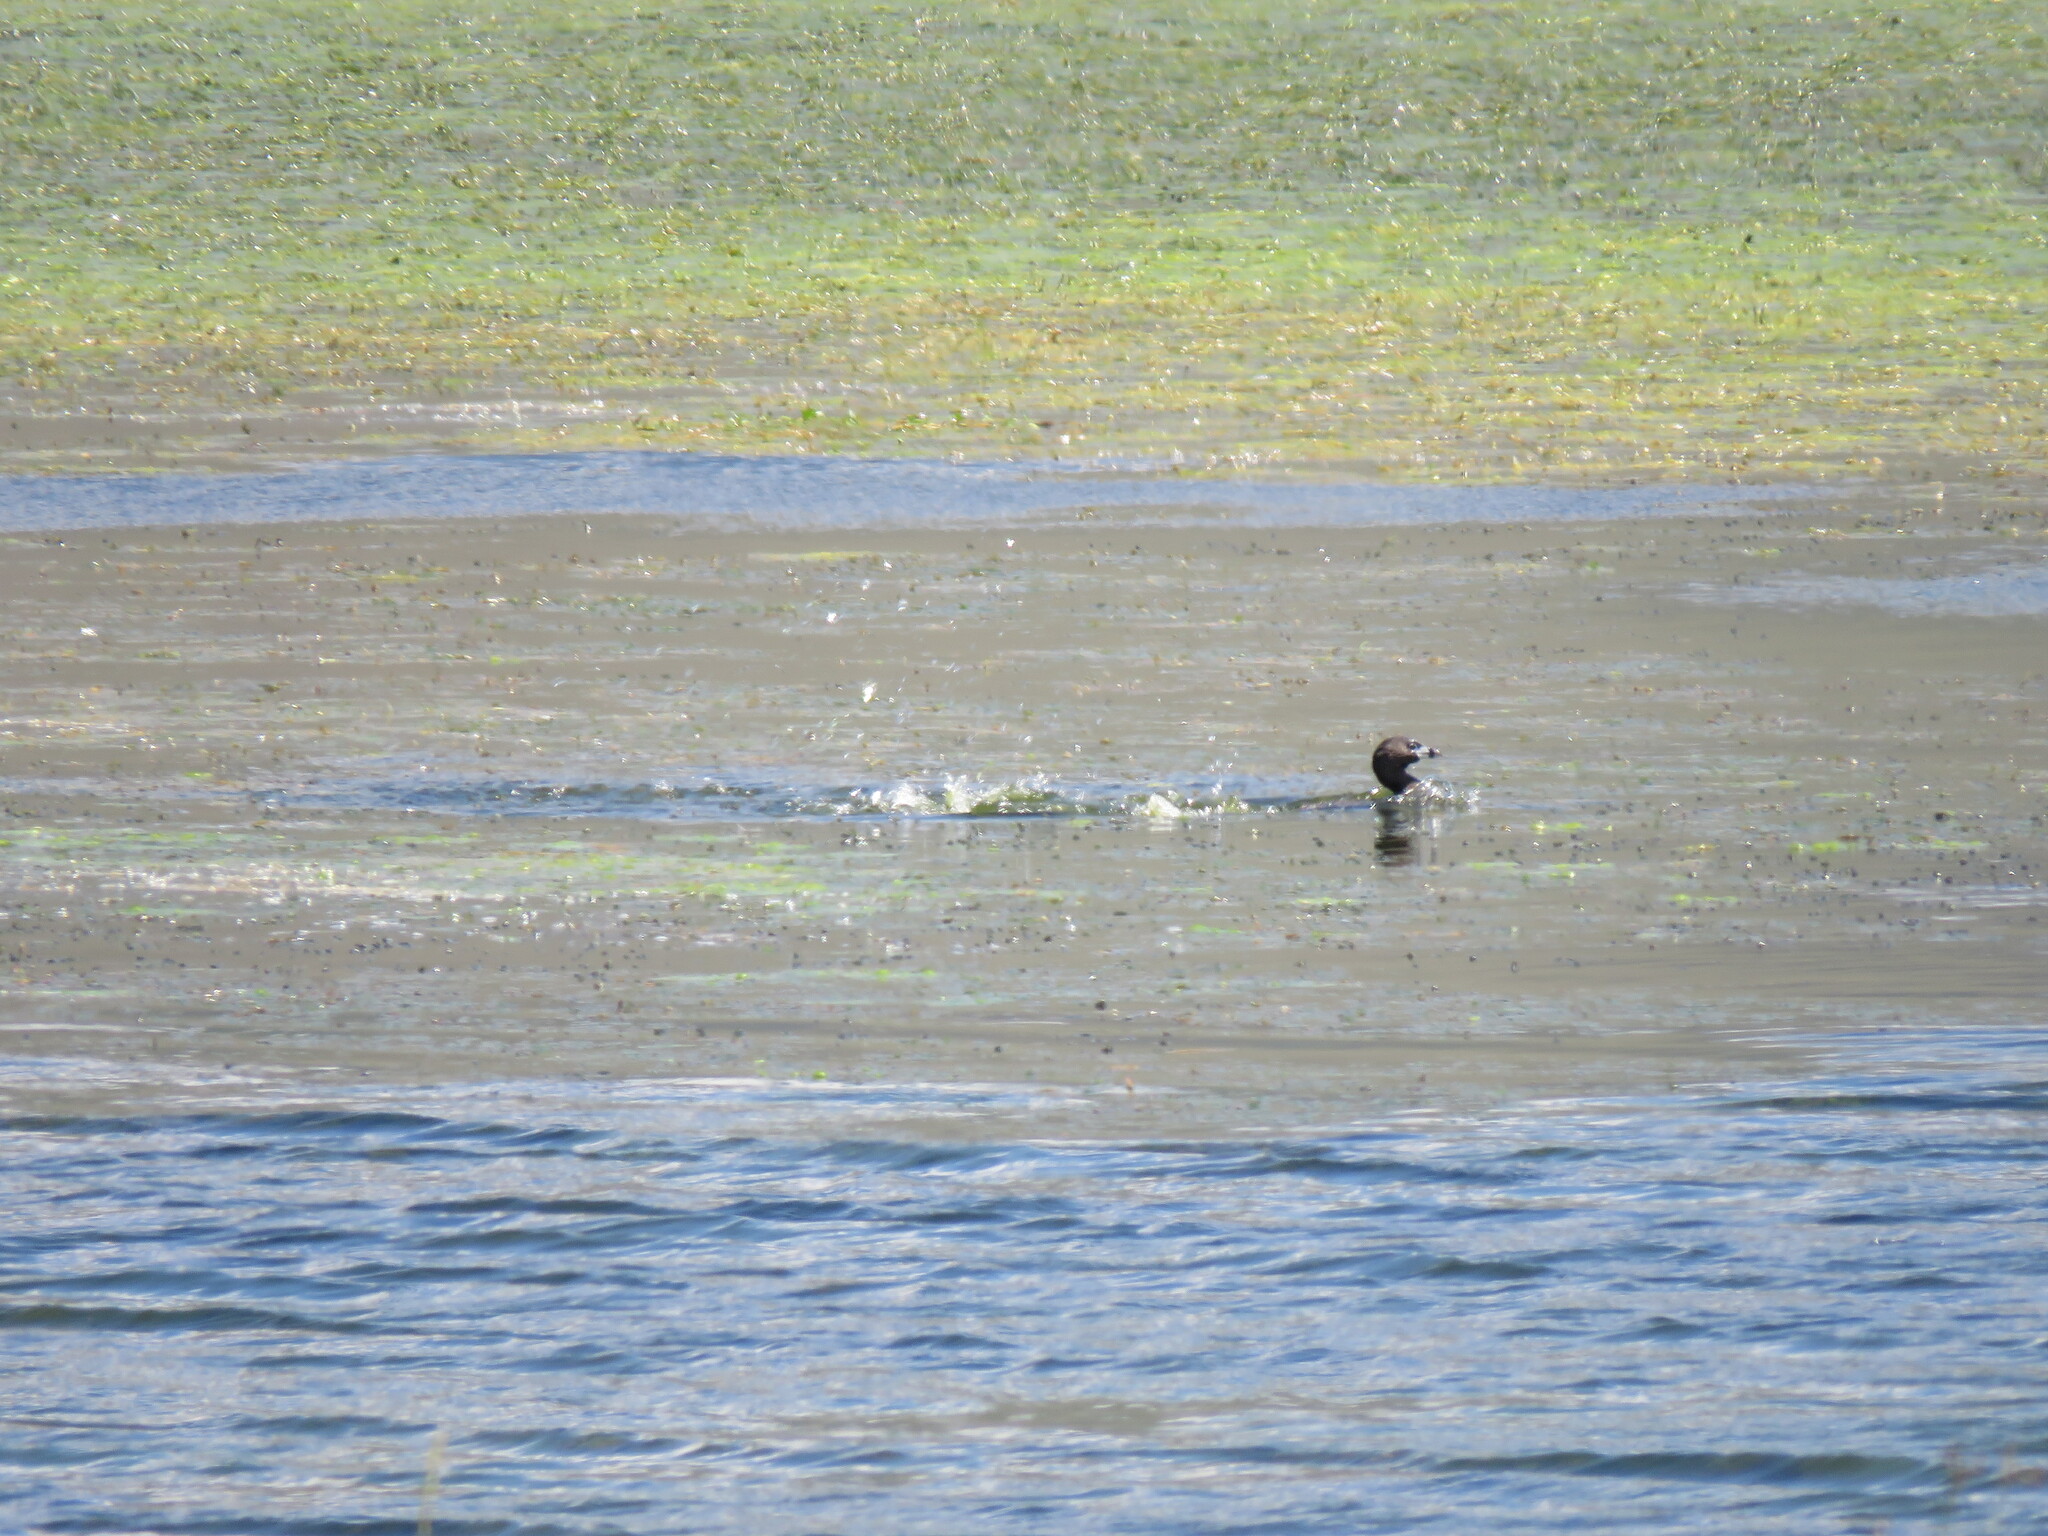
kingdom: Animalia
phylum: Chordata
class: Aves
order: Podicipediformes
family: Podicipedidae
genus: Podilymbus
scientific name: Podilymbus podiceps
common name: Pied-billed grebe
